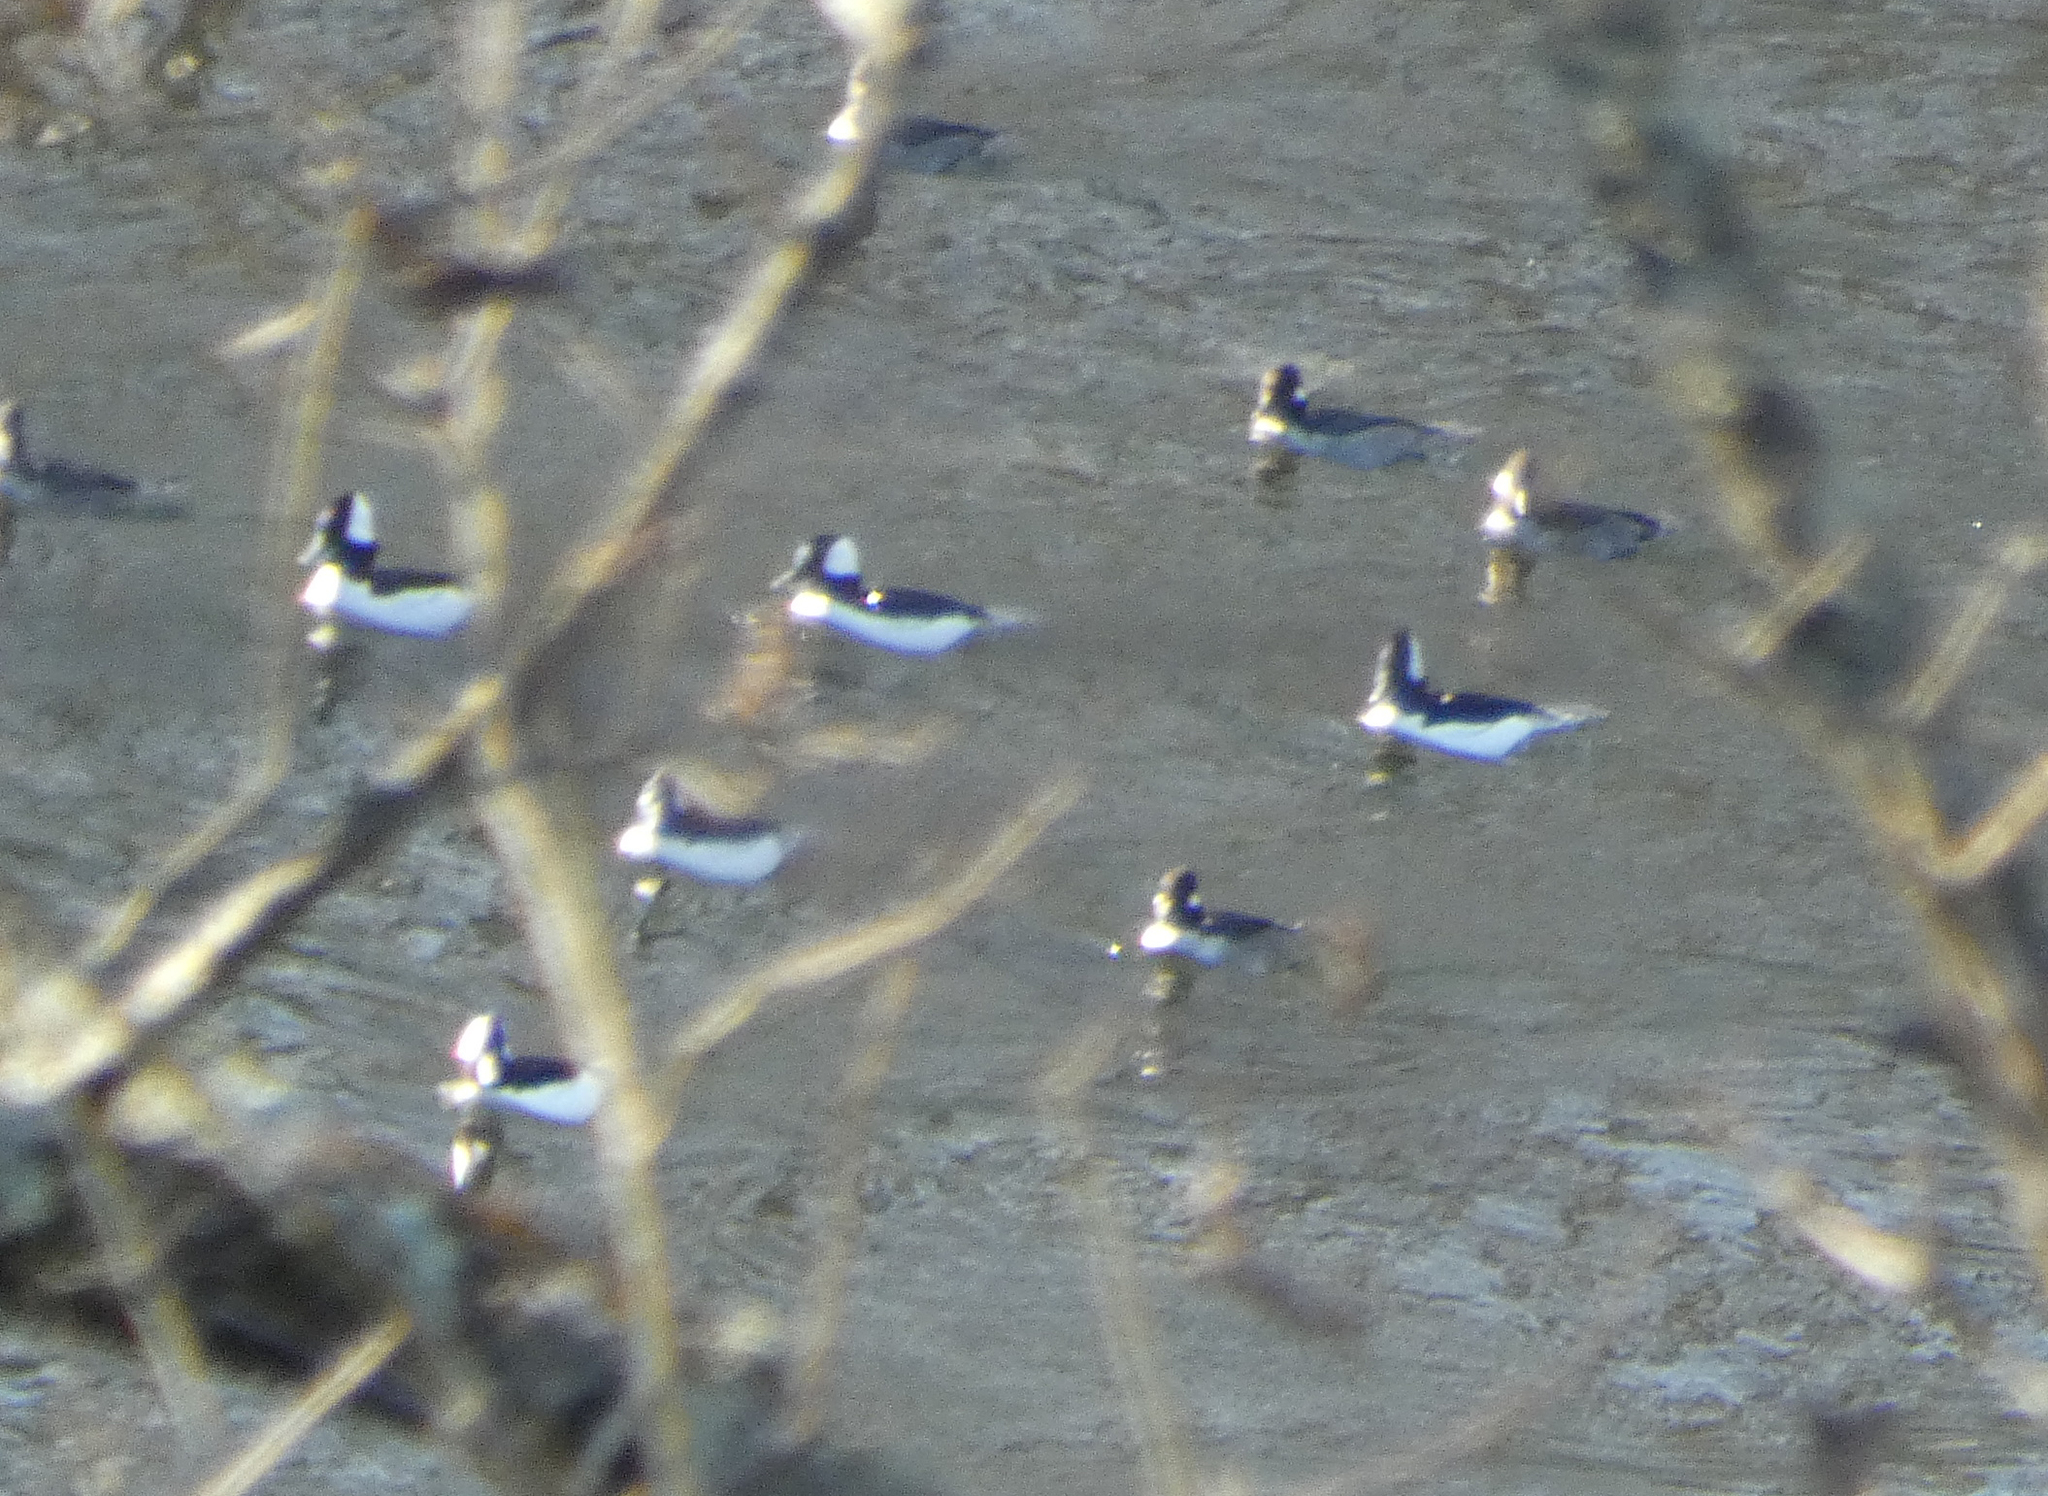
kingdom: Animalia
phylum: Chordata
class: Aves
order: Anseriformes
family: Anatidae
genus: Bucephala
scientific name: Bucephala albeola
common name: Bufflehead
